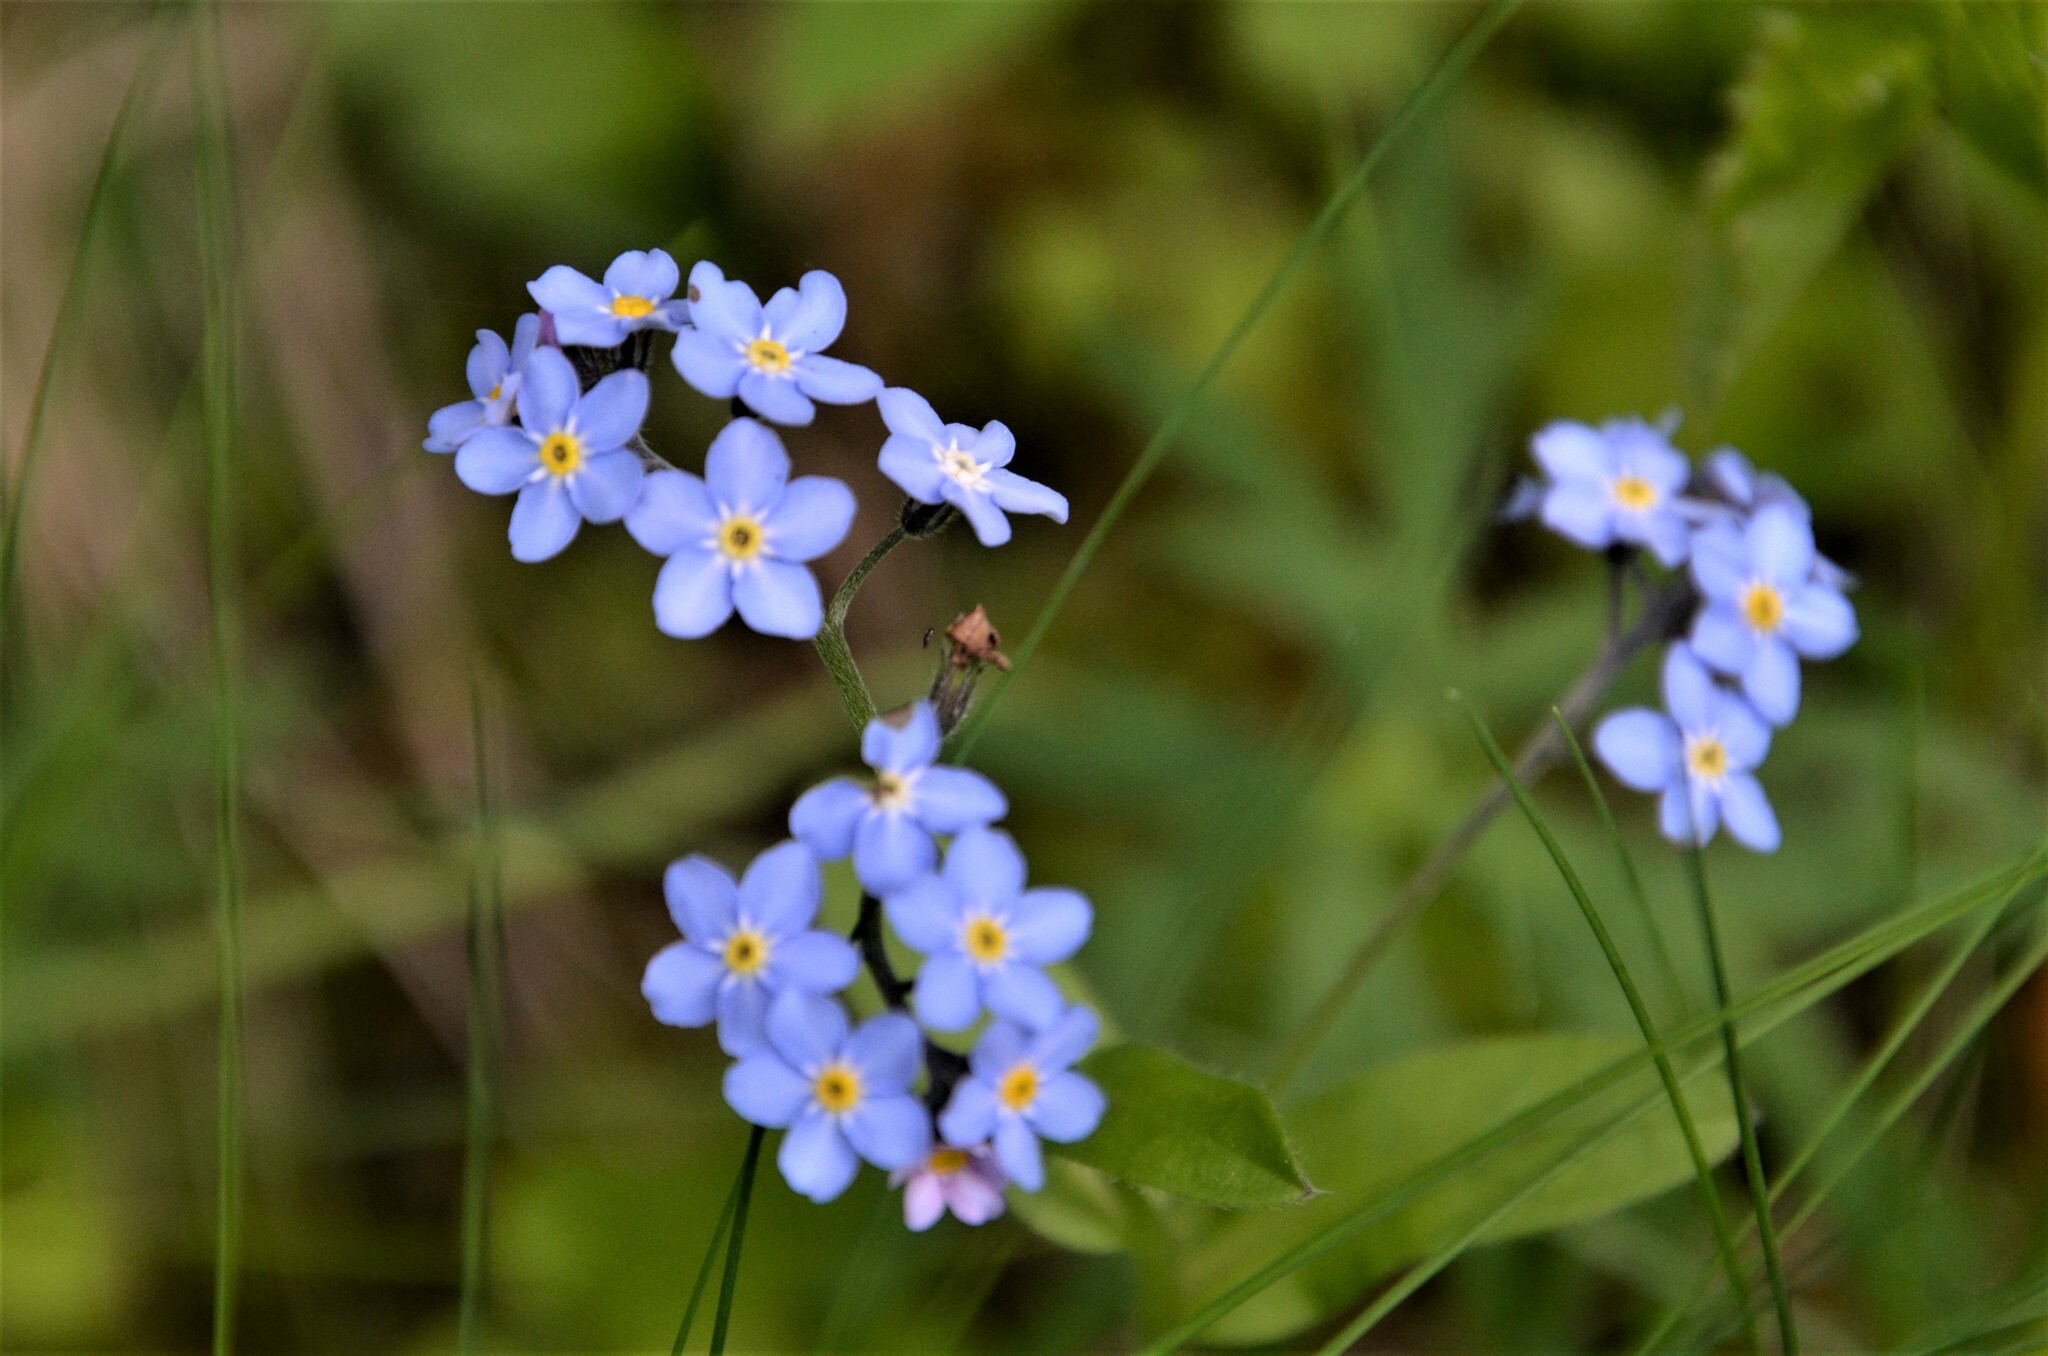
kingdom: Plantae
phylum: Tracheophyta
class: Magnoliopsida
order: Boraginales
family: Boraginaceae
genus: Myosotis
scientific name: Myosotis sylvatica
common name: Wood forget-me-not
